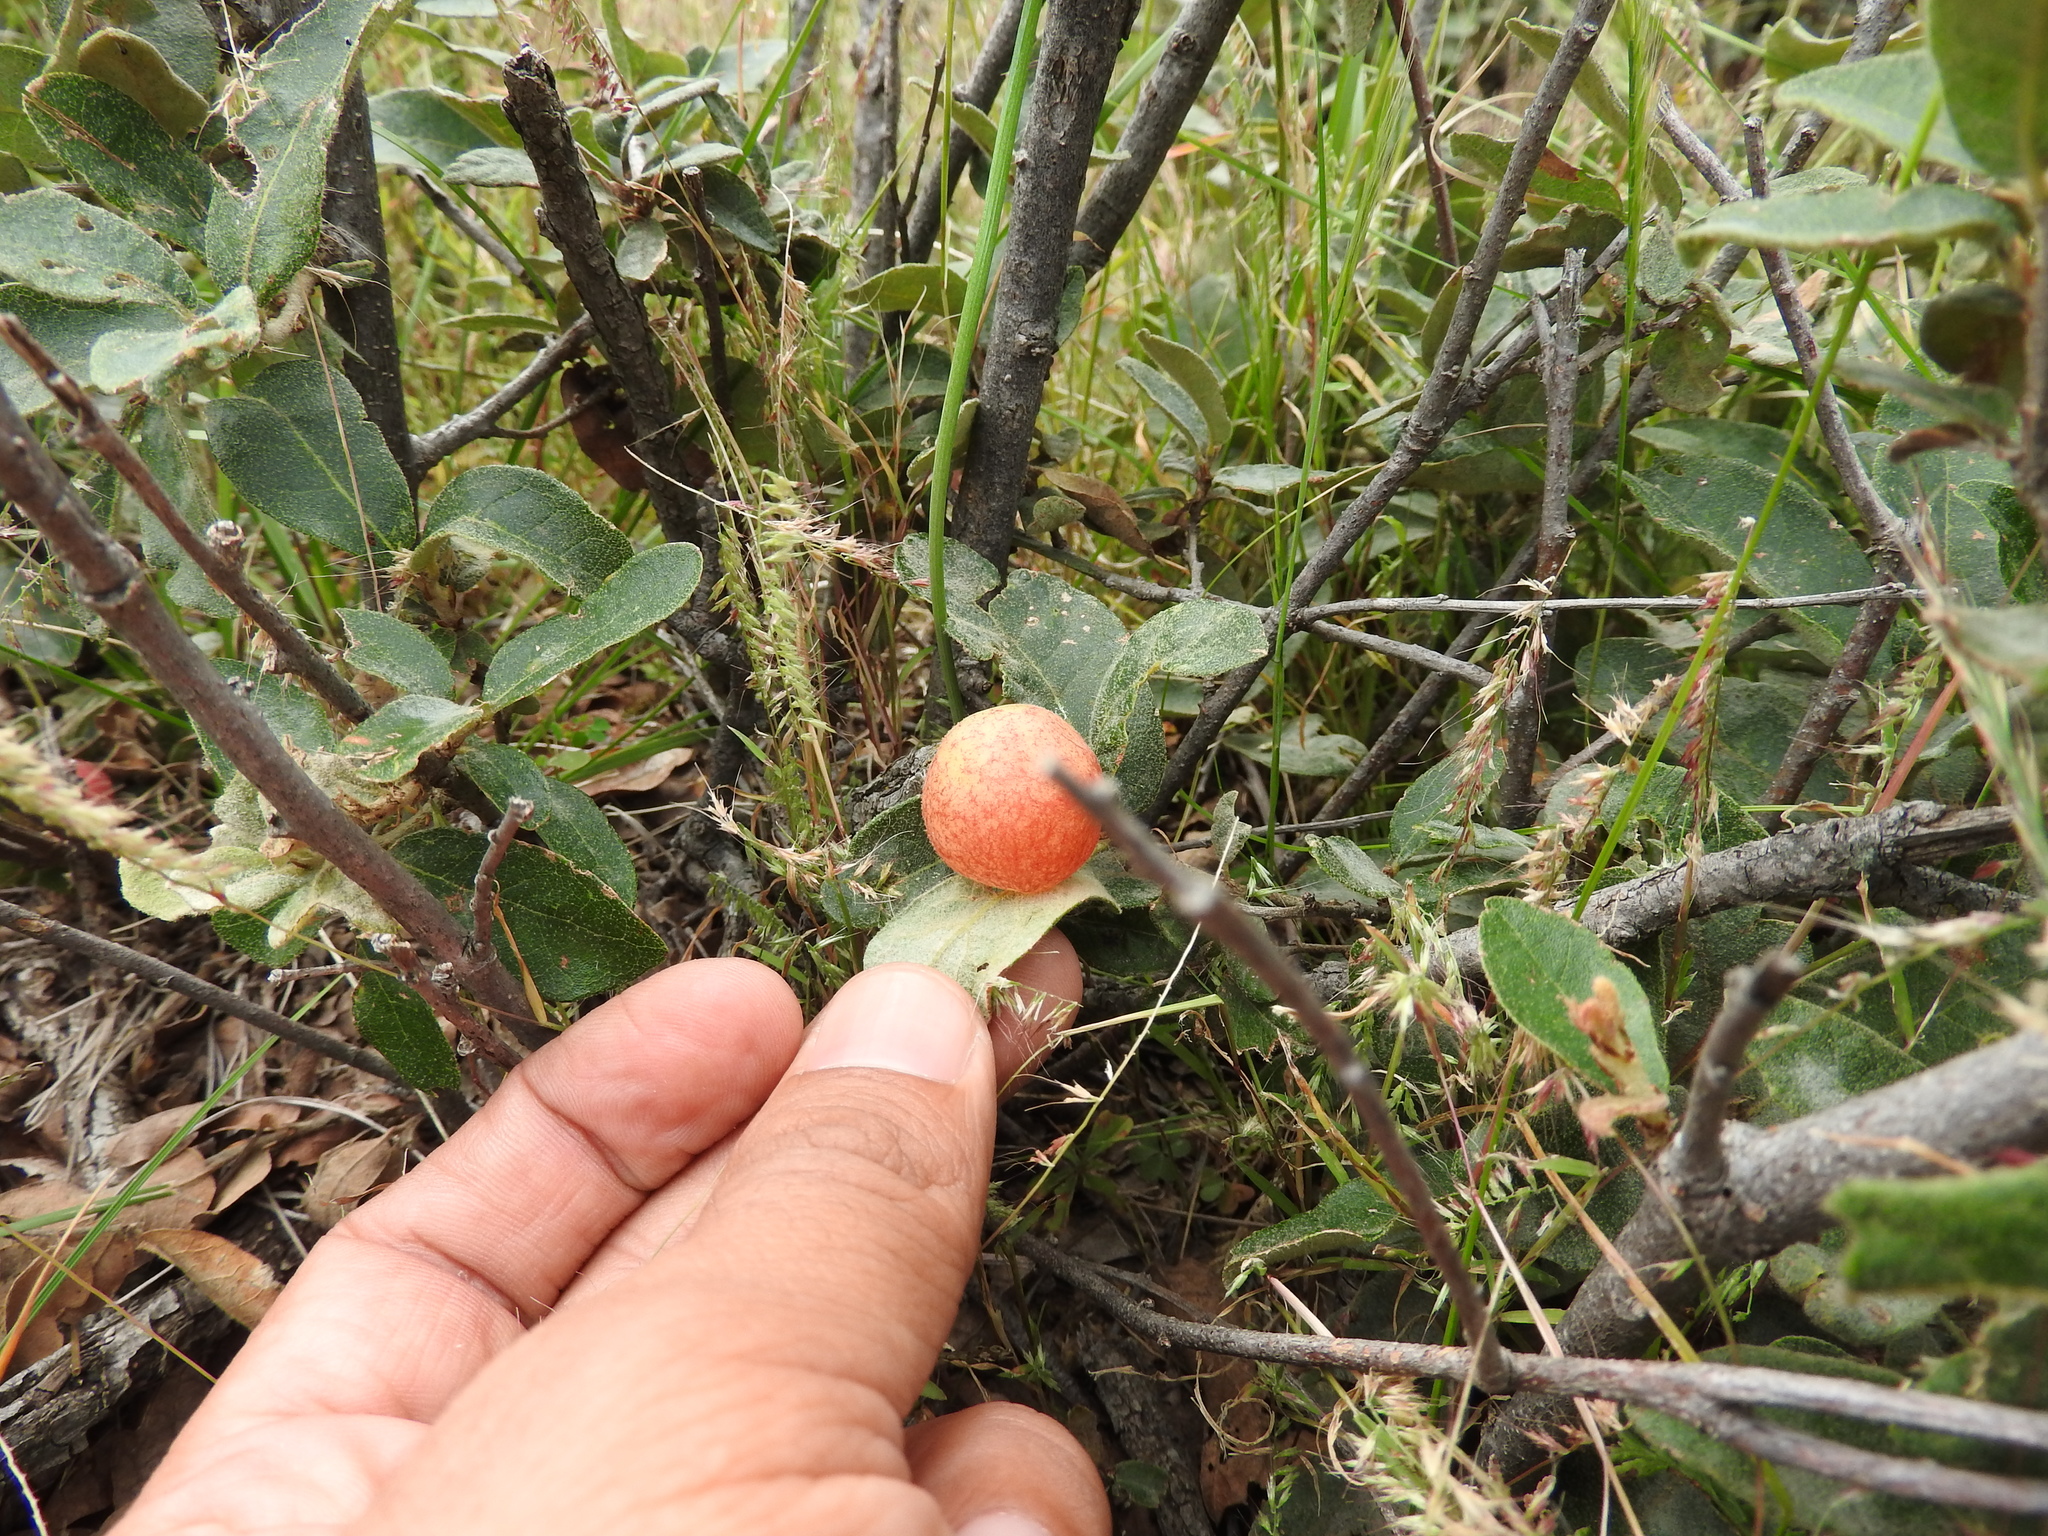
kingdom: Plantae
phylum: Tracheophyta
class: Magnoliopsida
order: Fagales
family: Fagaceae
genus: Quercus
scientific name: Quercus grisea
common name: Gray oak
